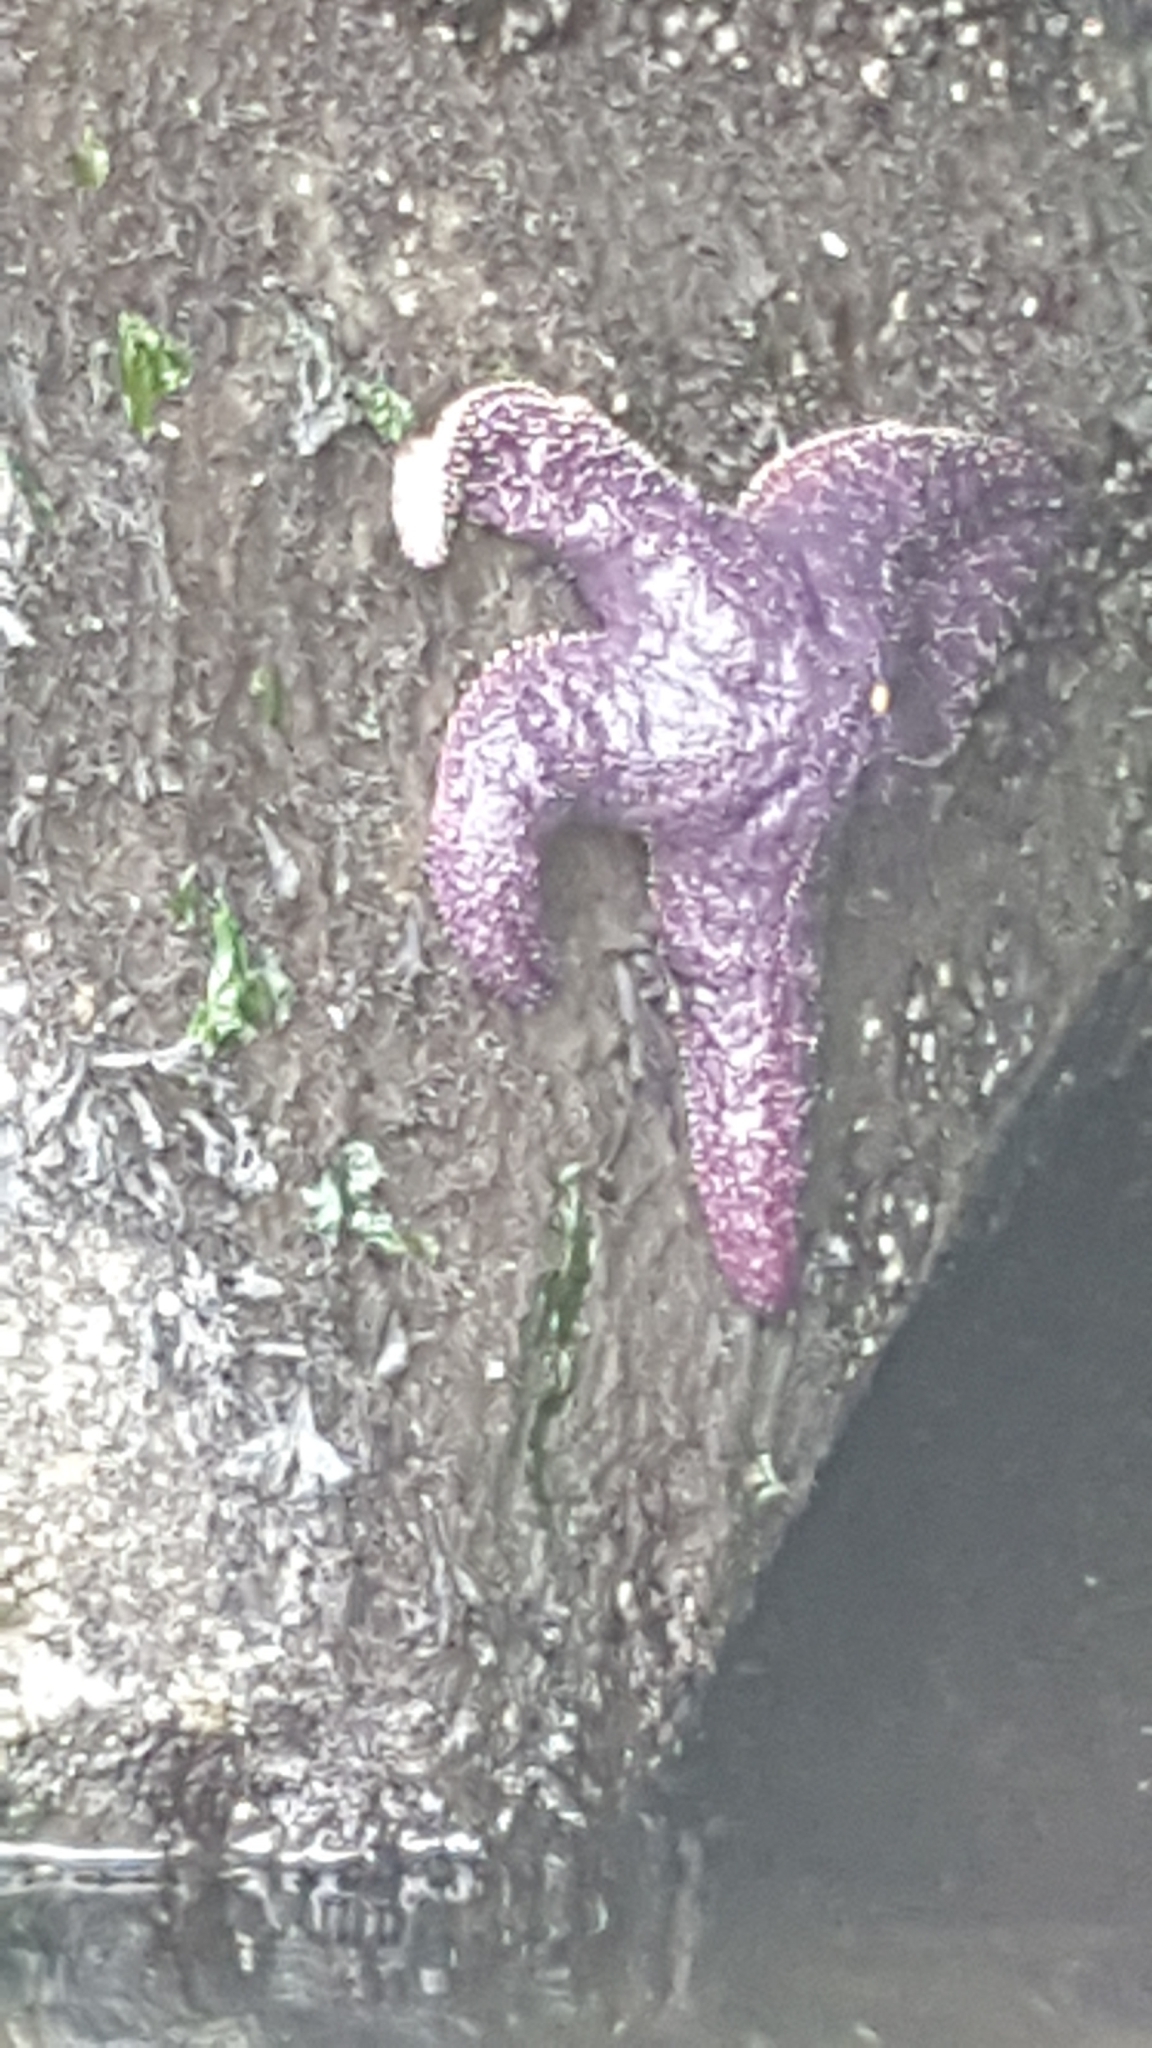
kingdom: Animalia
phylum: Echinodermata
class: Asteroidea
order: Forcipulatida
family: Asteriidae
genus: Pisaster
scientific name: Pisaster ochraceus
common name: Ochre stars
